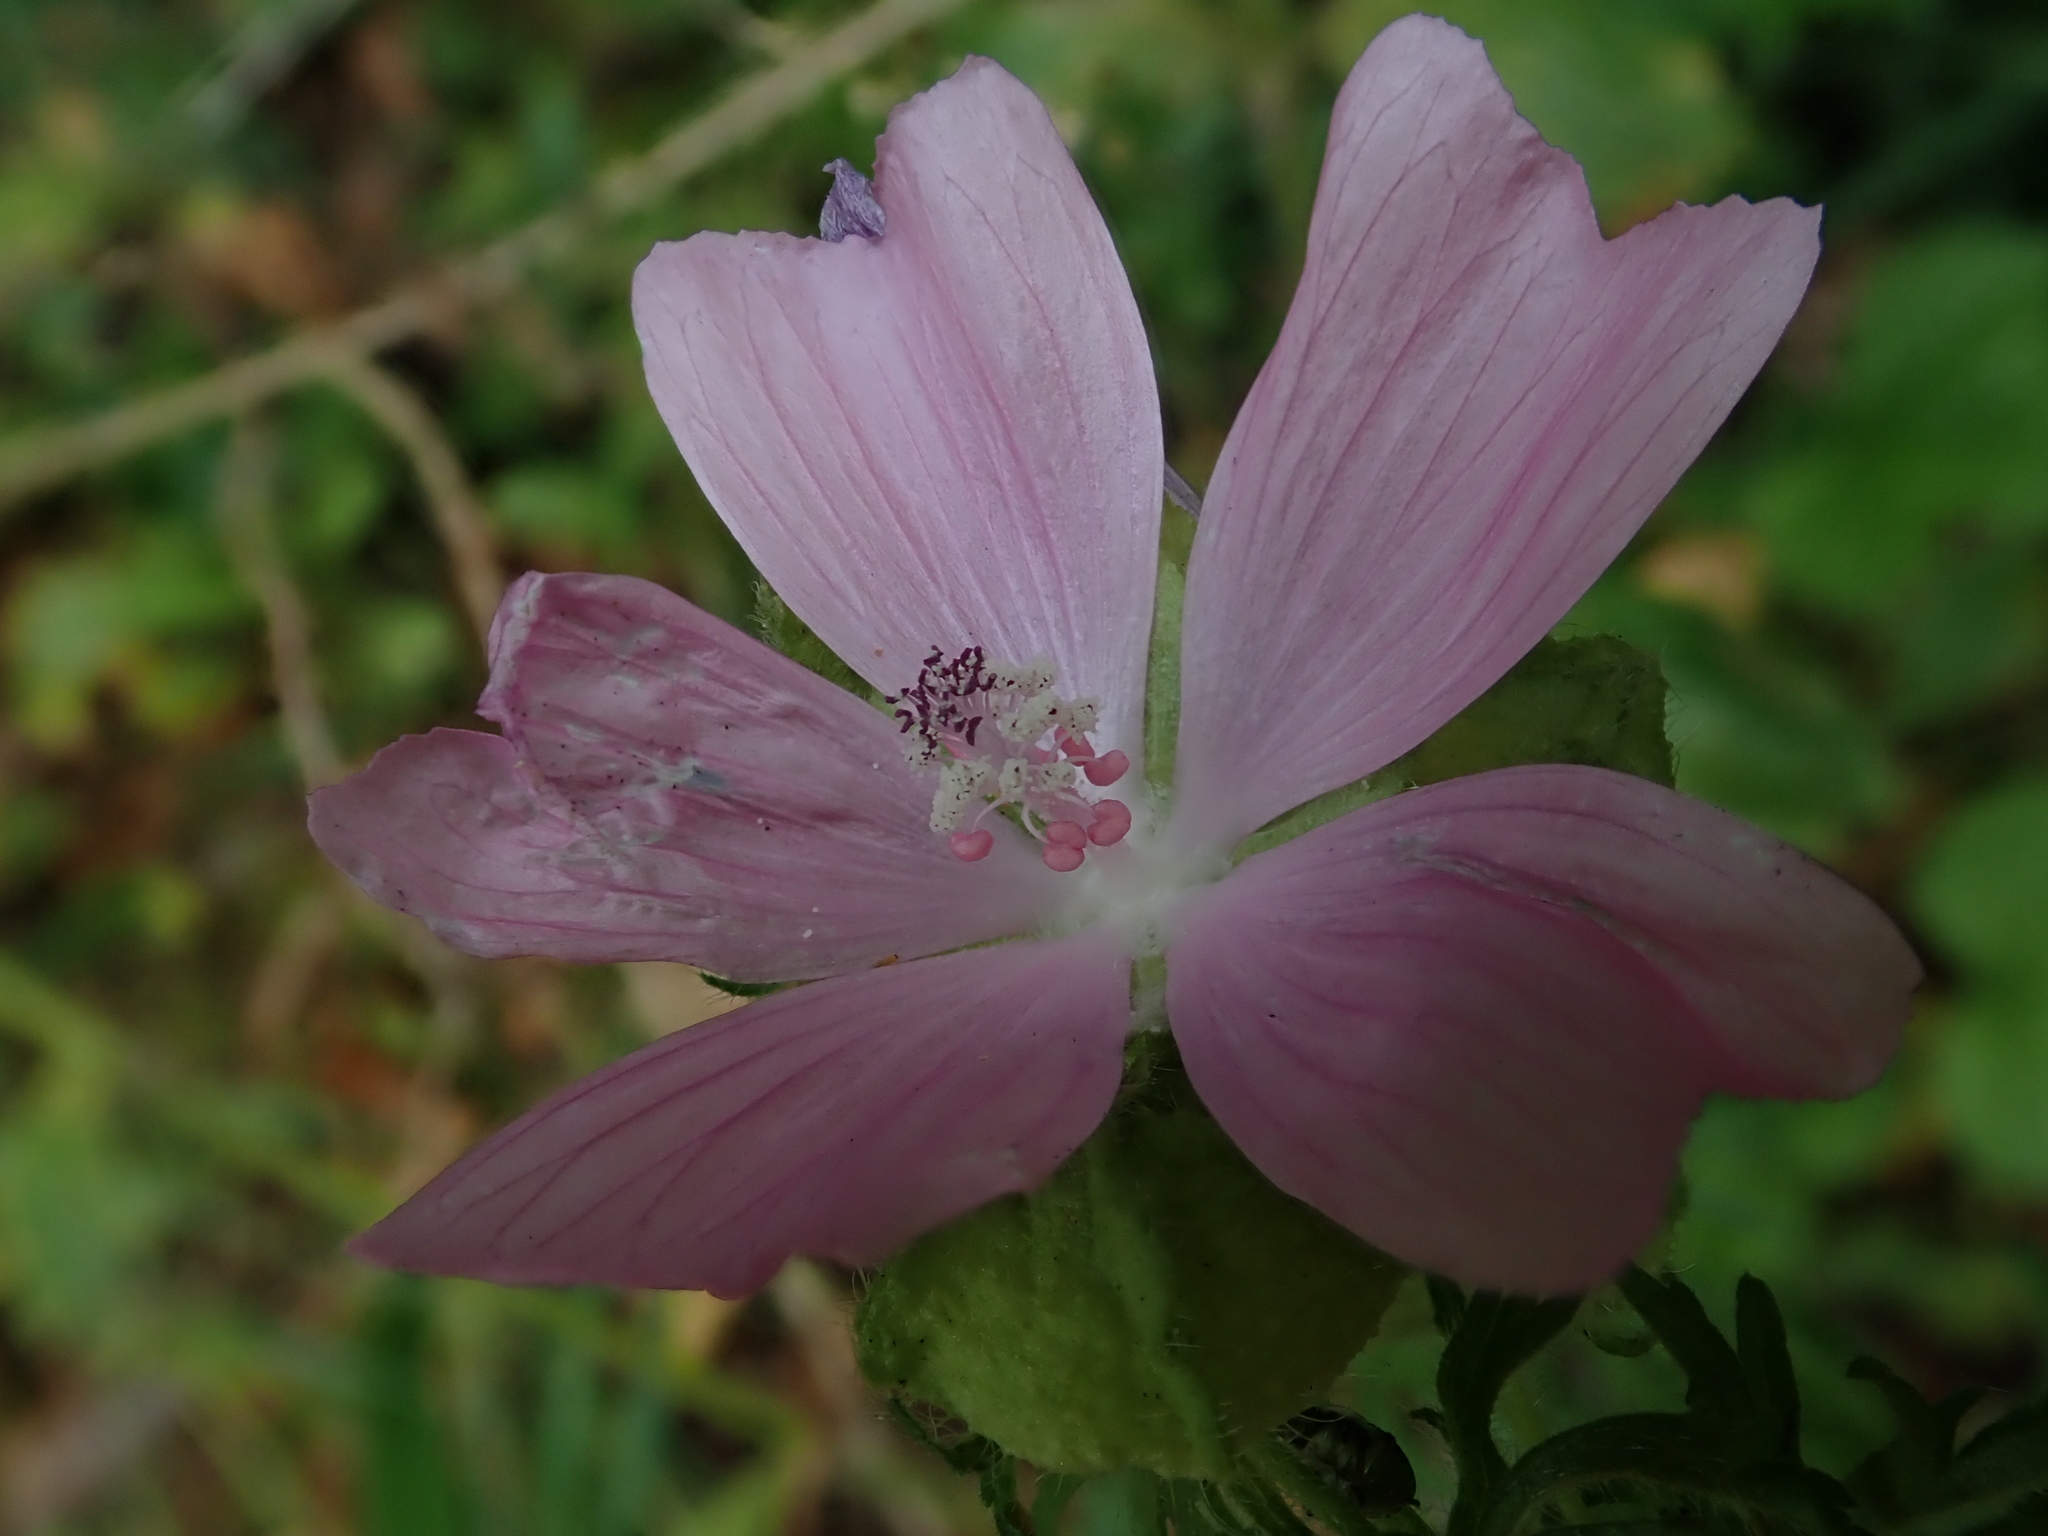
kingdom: Plantae
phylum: Tracheophyta
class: Magnoliopsida
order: Malvales
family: Malvaceae
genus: Malva
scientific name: Malva moschata
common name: Musk mallow
